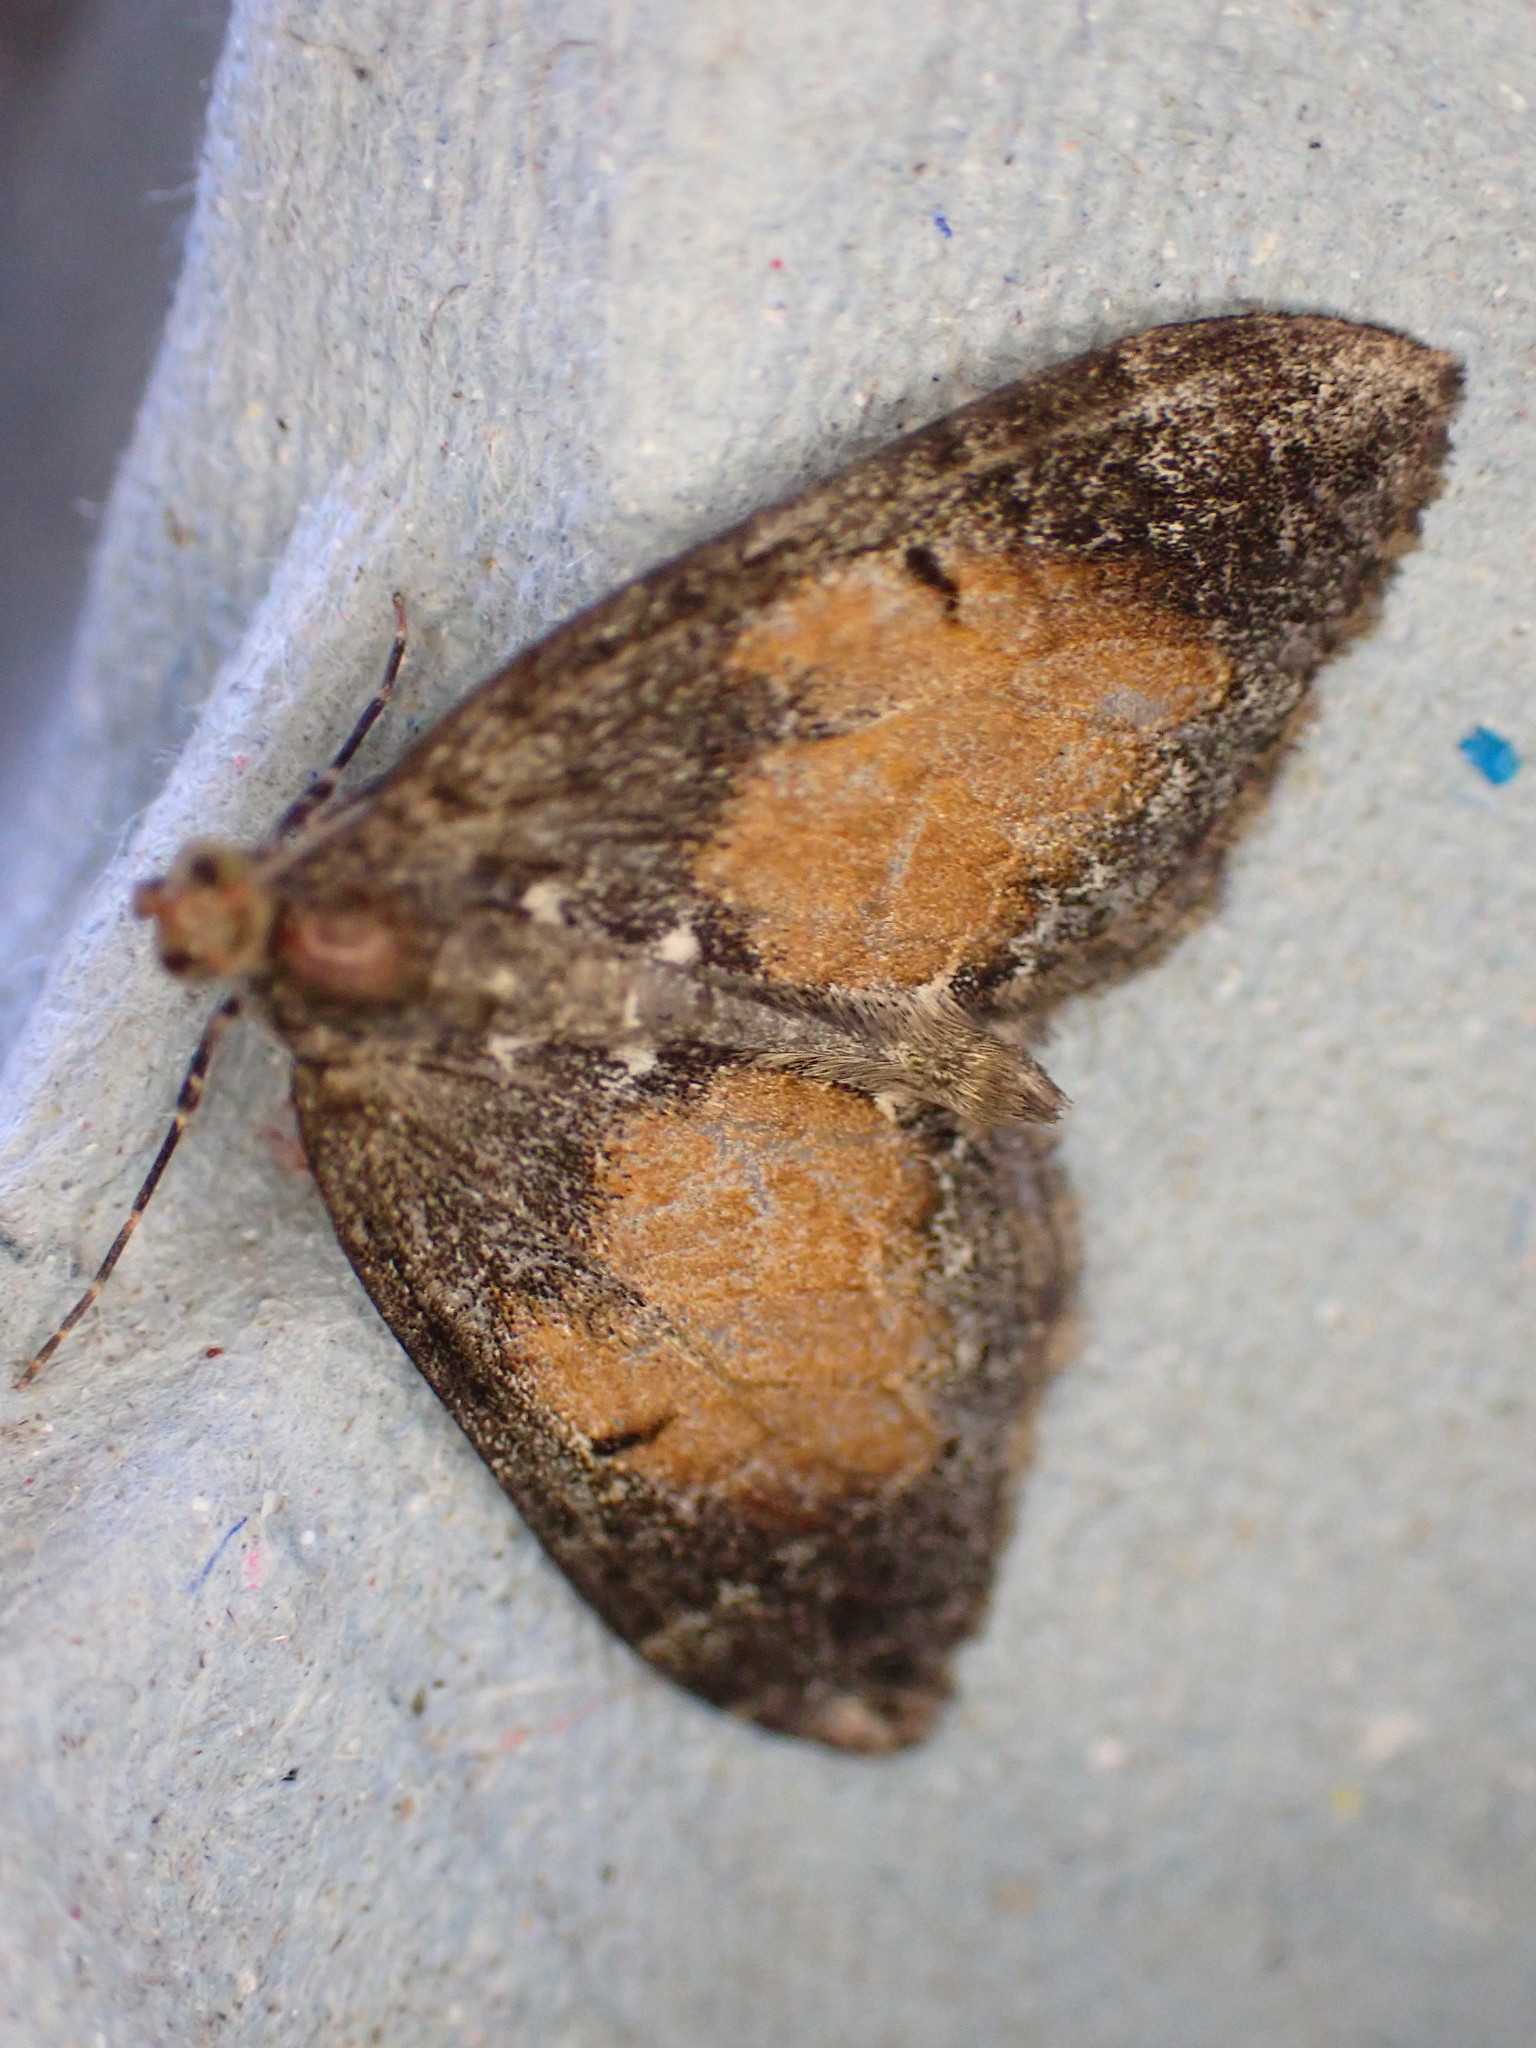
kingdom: Animalia
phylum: Arthropoda
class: Insecta
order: Lepidoptera
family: Geometridae
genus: Dysstroma
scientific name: Dysstroma truncata
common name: Common marbled carpet
